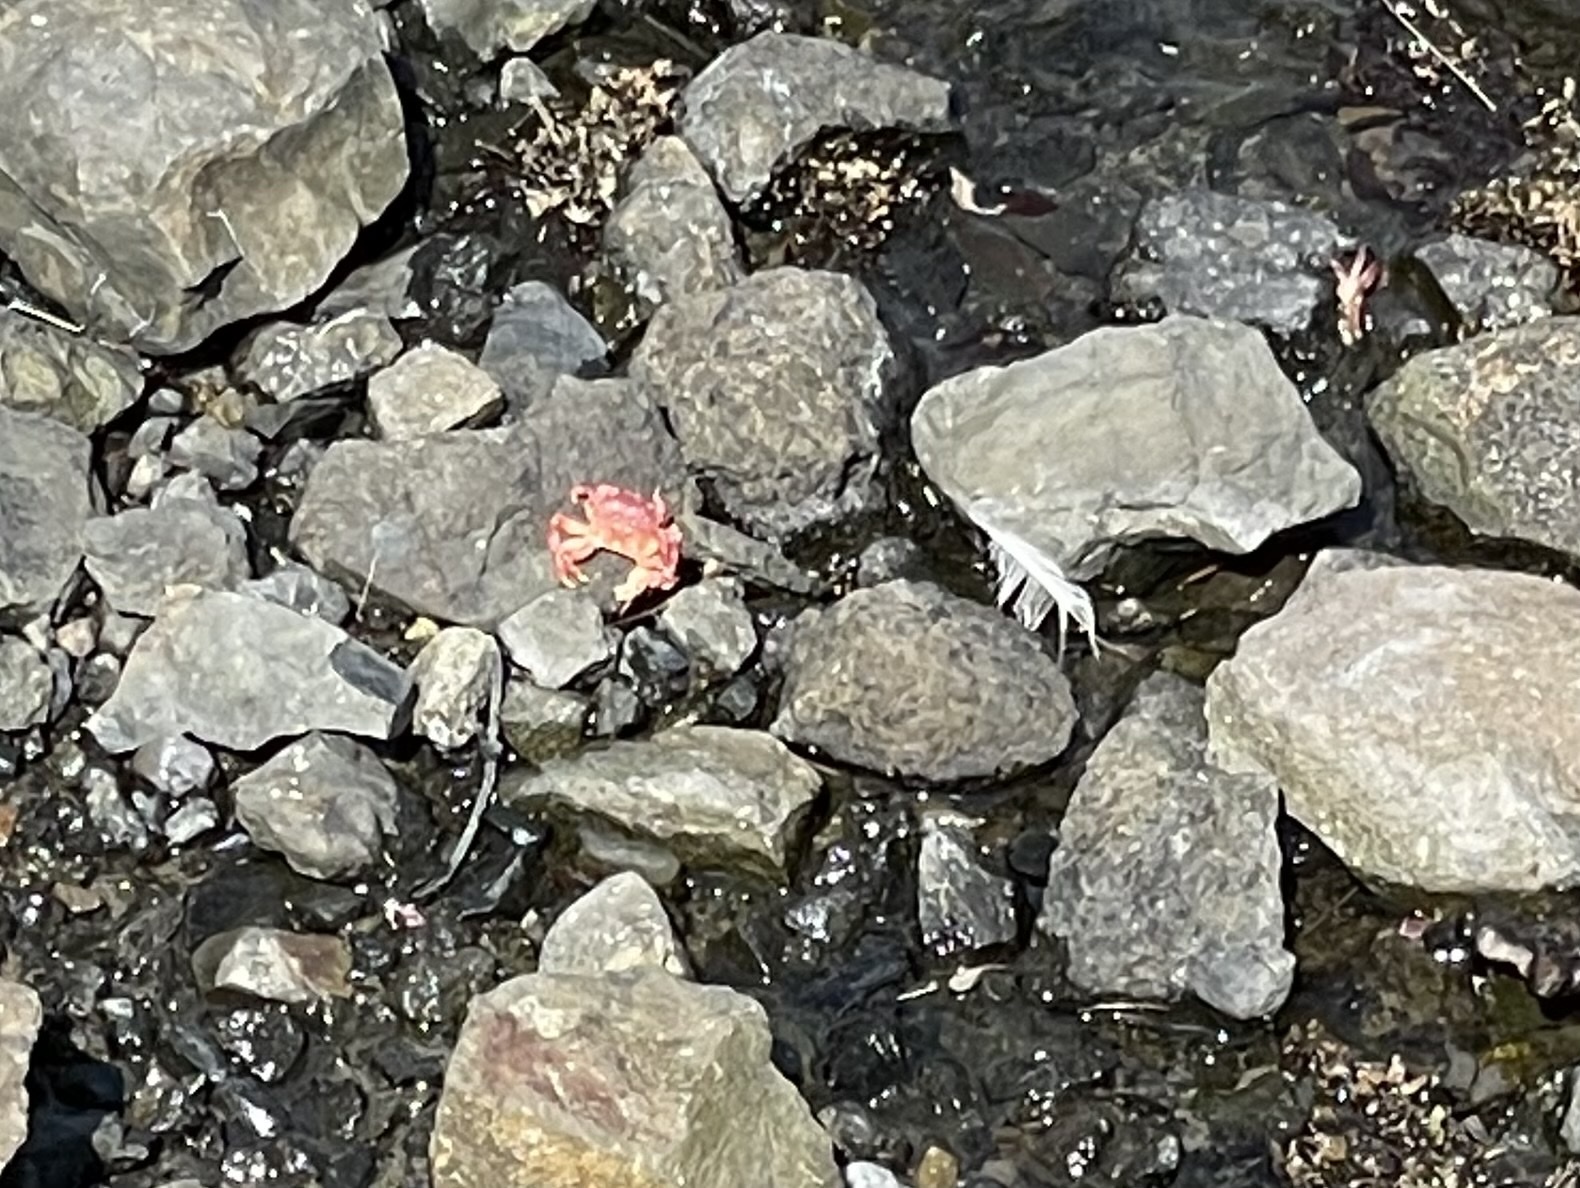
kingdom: Animalia
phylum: Arthropoda
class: Malacostraca
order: Decapoda
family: Varunidae
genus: Hemigrapsus
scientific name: Hemigrapsus nudus
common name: Purple shore crab
